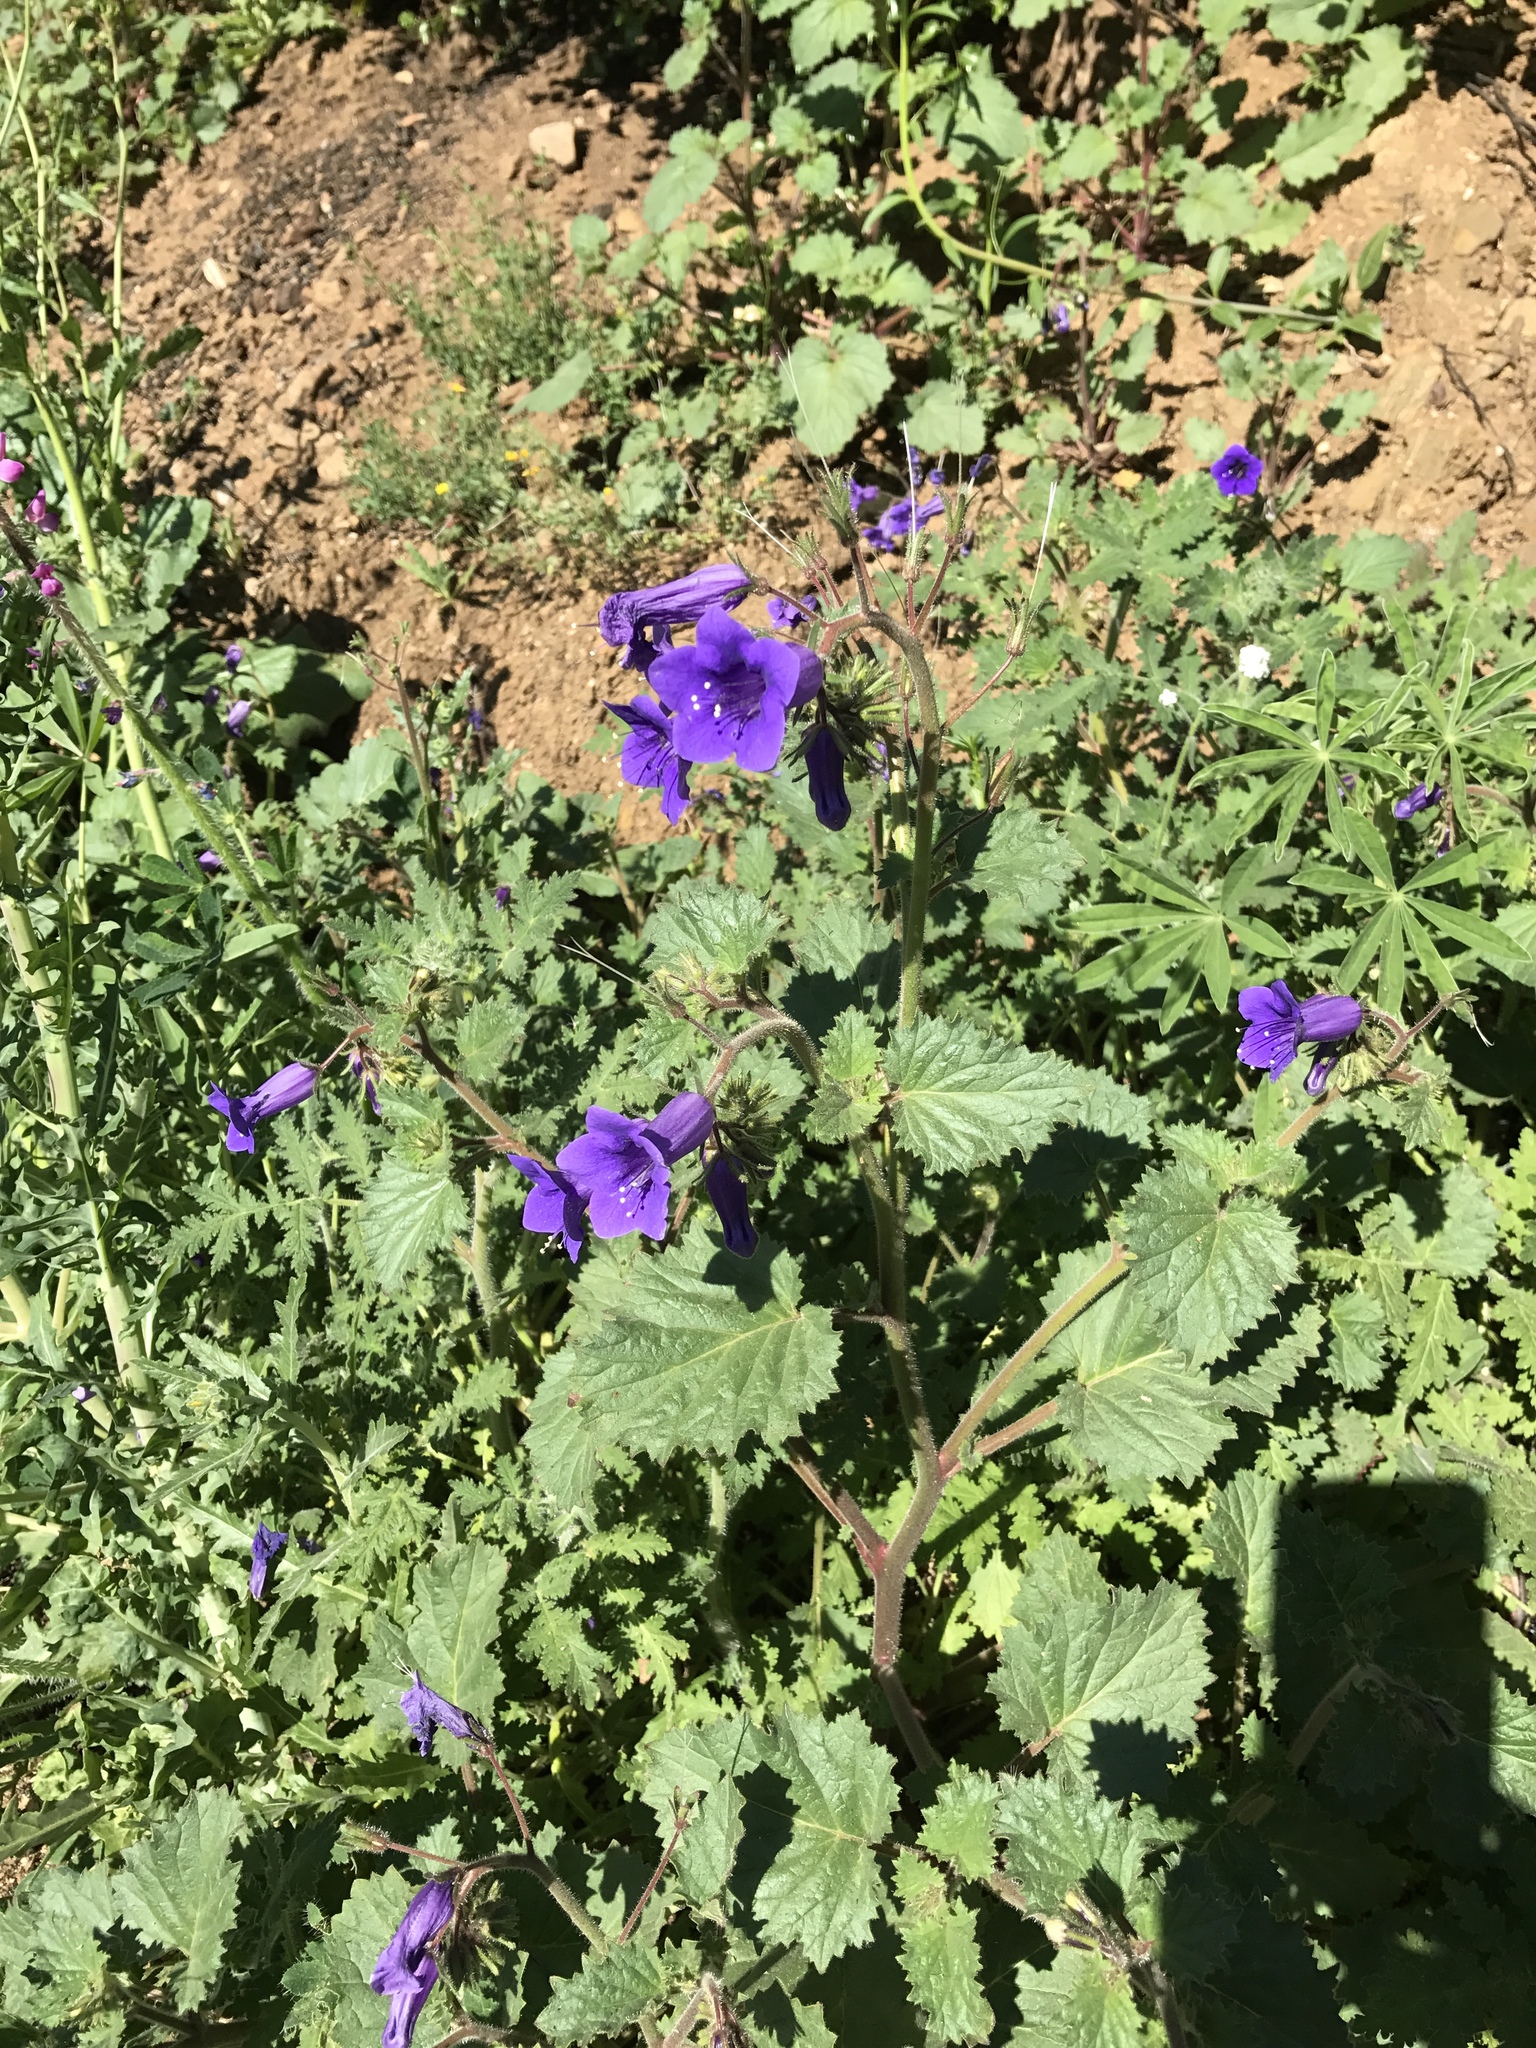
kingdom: Plantae
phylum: Tracheophyta
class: Magnoliopsida
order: Boraginales
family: Hydrophyllaceae
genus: Phacelia
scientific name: Phacelia minor
